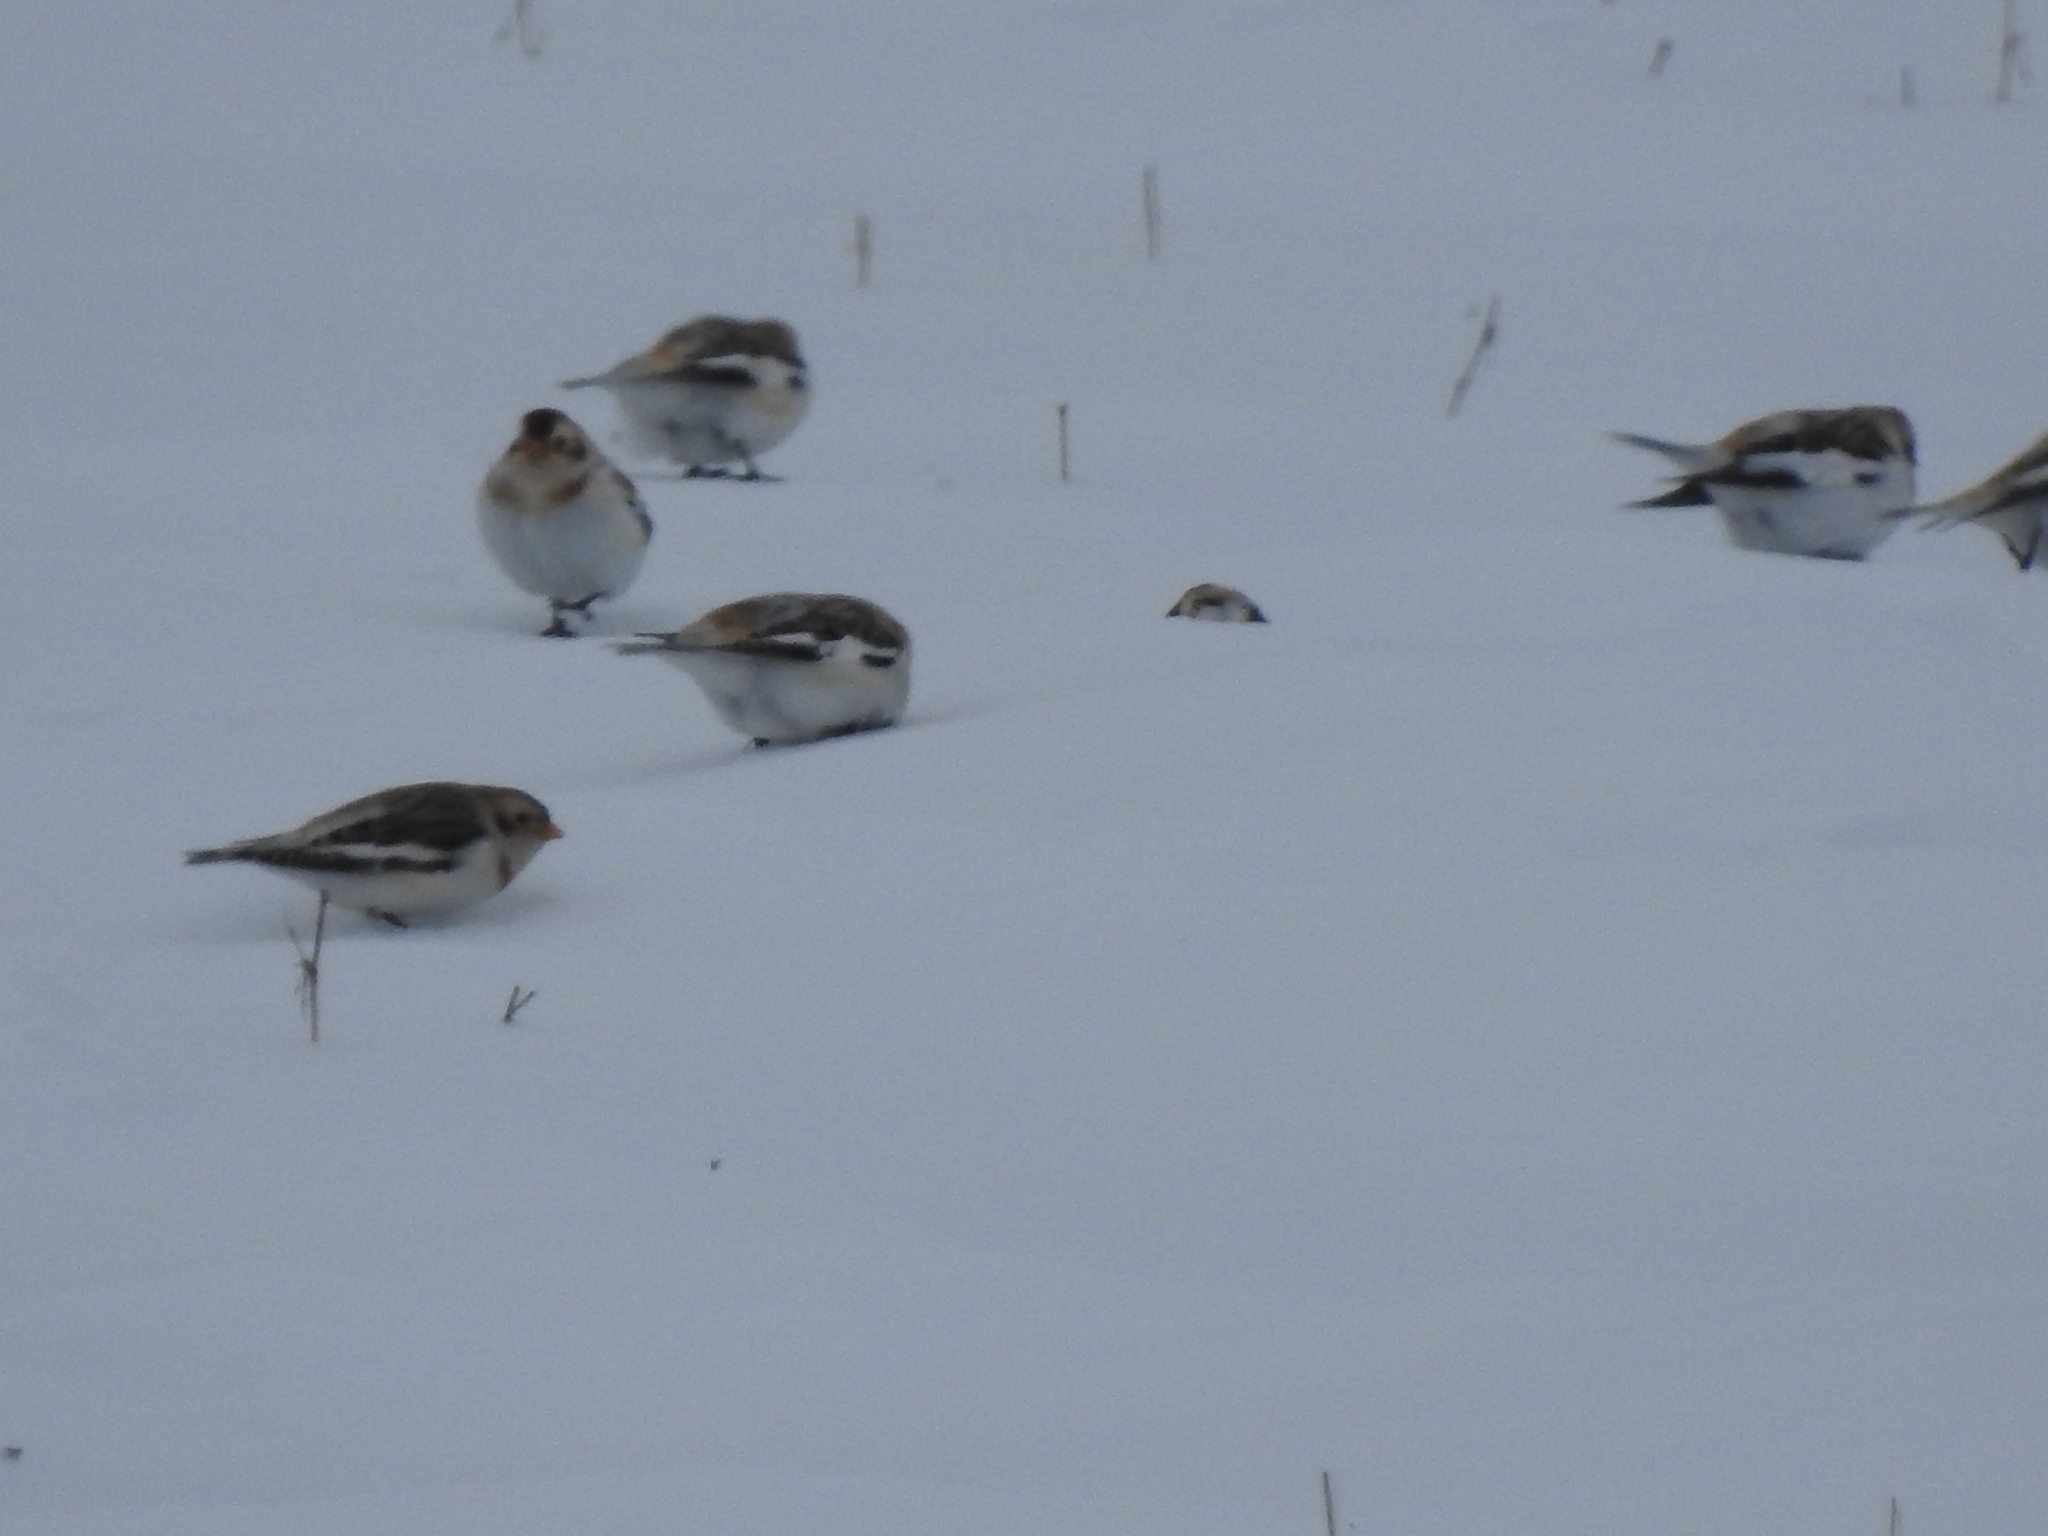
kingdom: Animalia
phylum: Chordata
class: Aves
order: Passeriformes
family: Calcariidae
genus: Plectrophenax
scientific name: Plectrophenax nivalis
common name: Snow bunting
